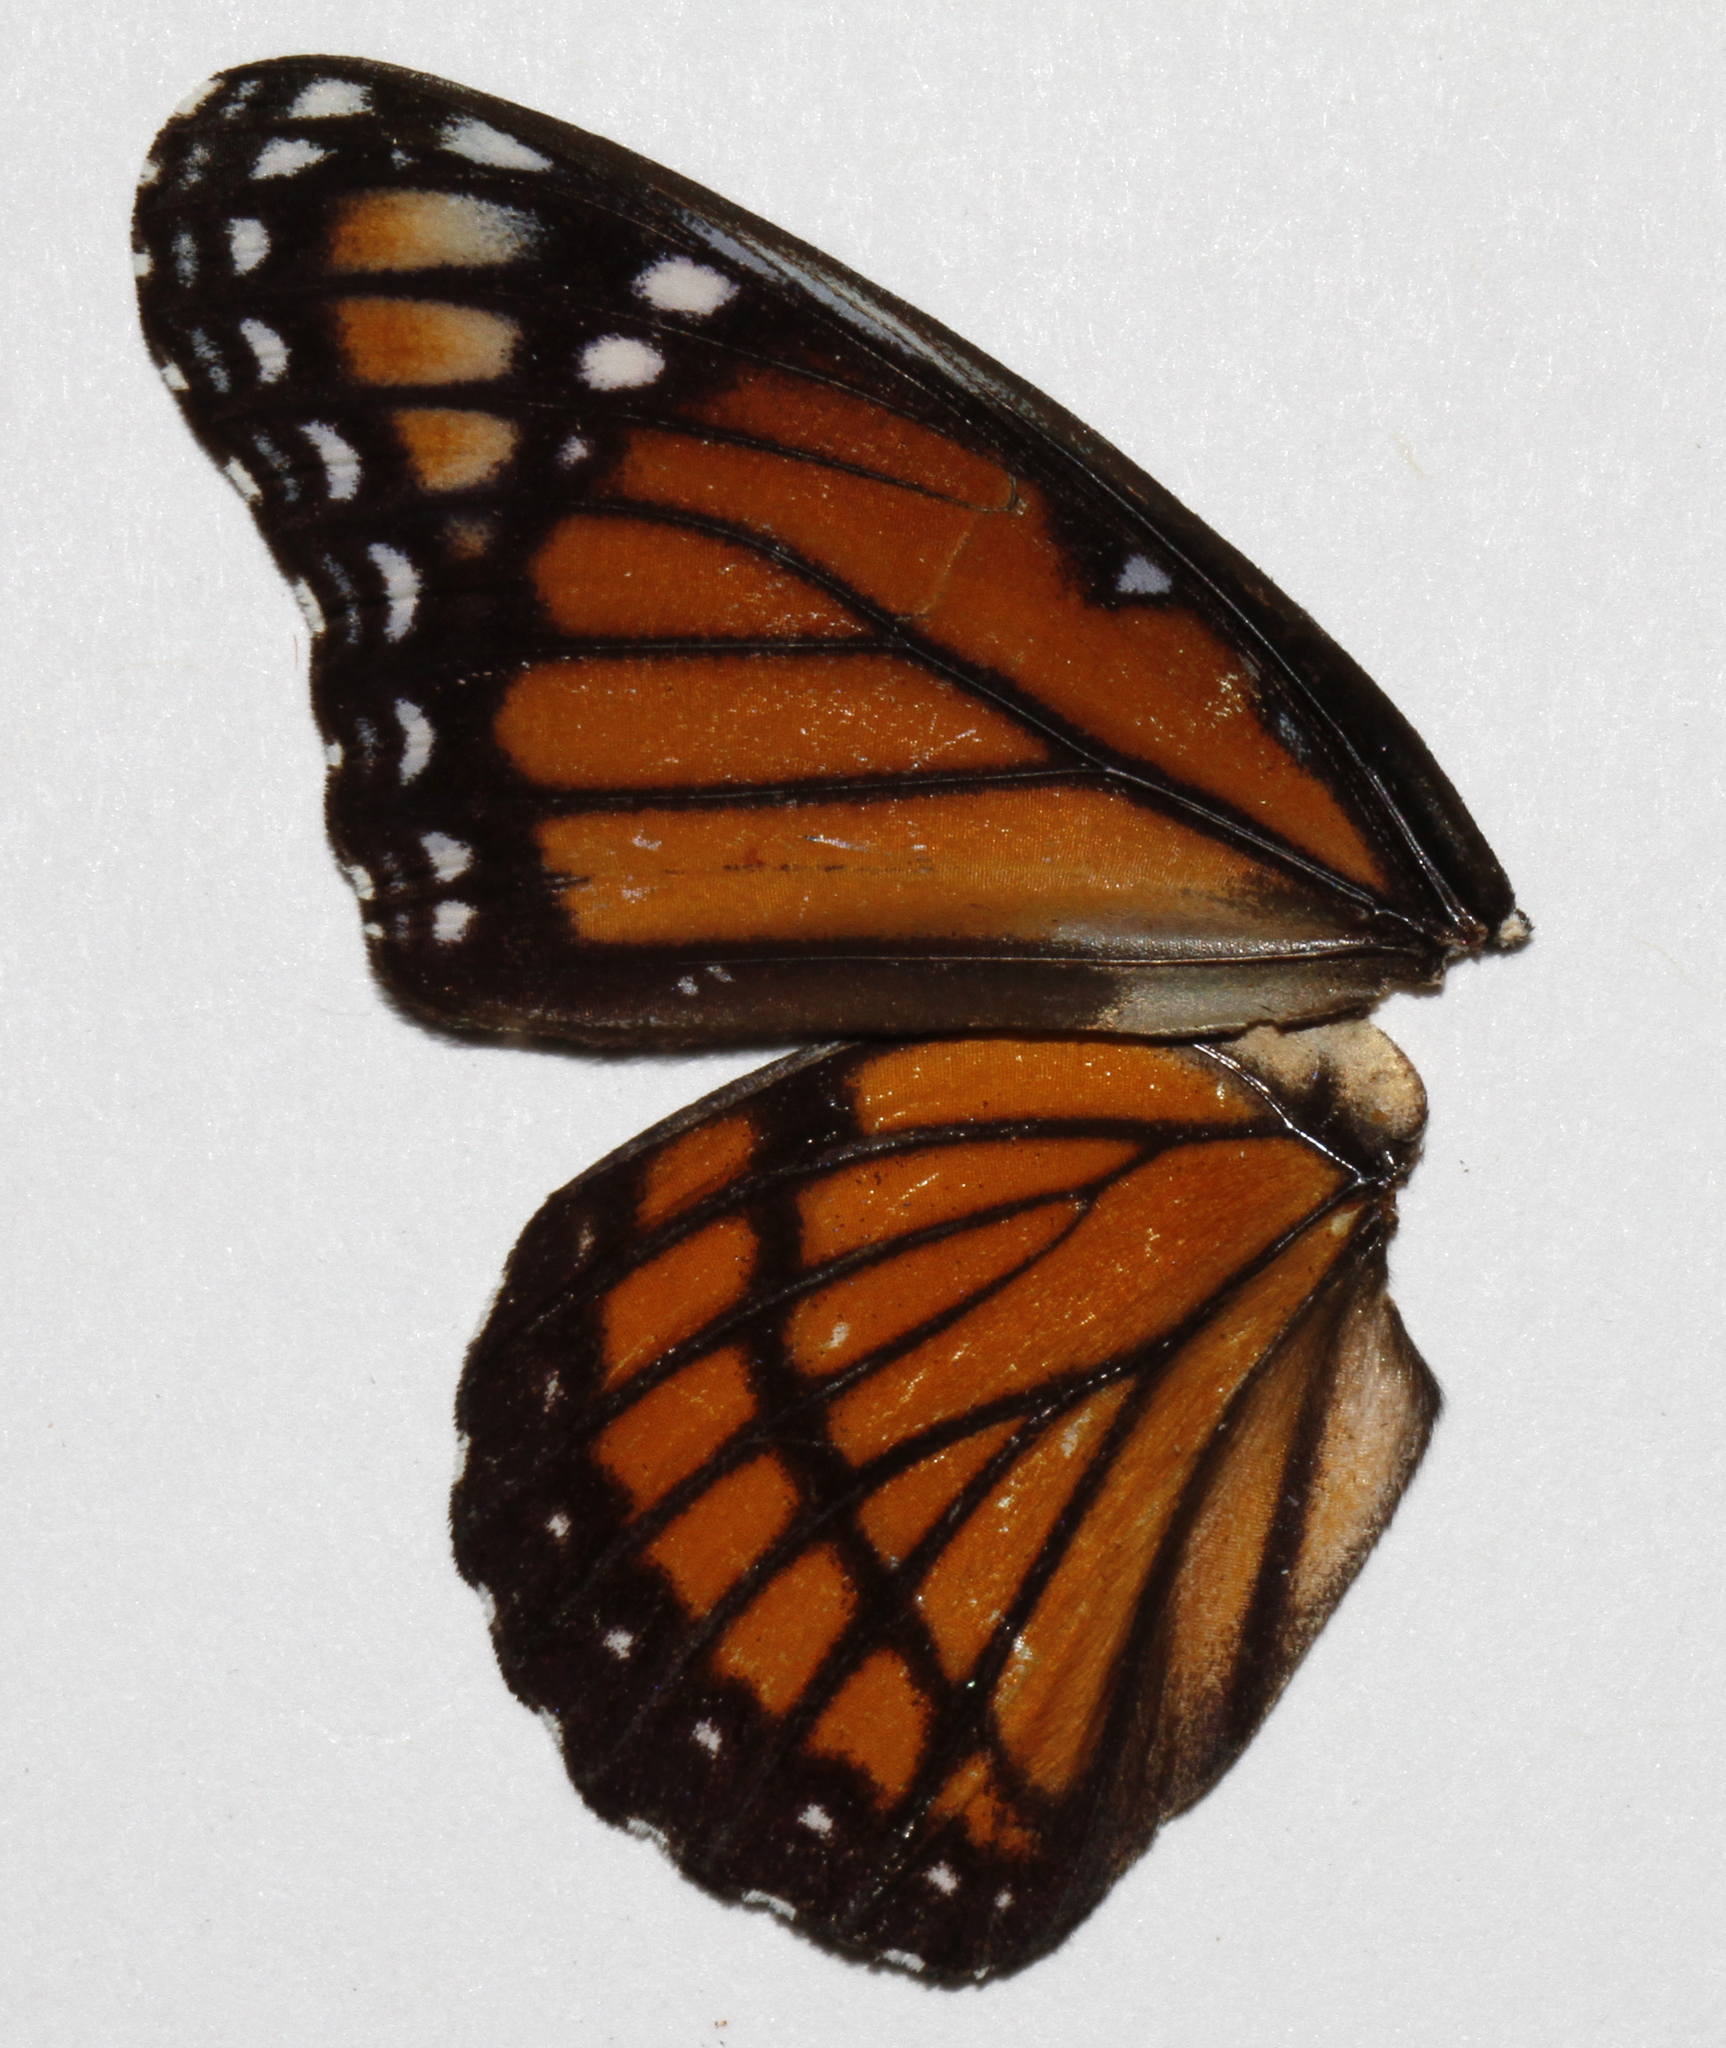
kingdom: Animalia
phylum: Arthropoda
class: Insecta
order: Lepidoptera
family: Nymphalidae
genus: Limenitis
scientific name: Limenitis archippus
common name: Viceroy
